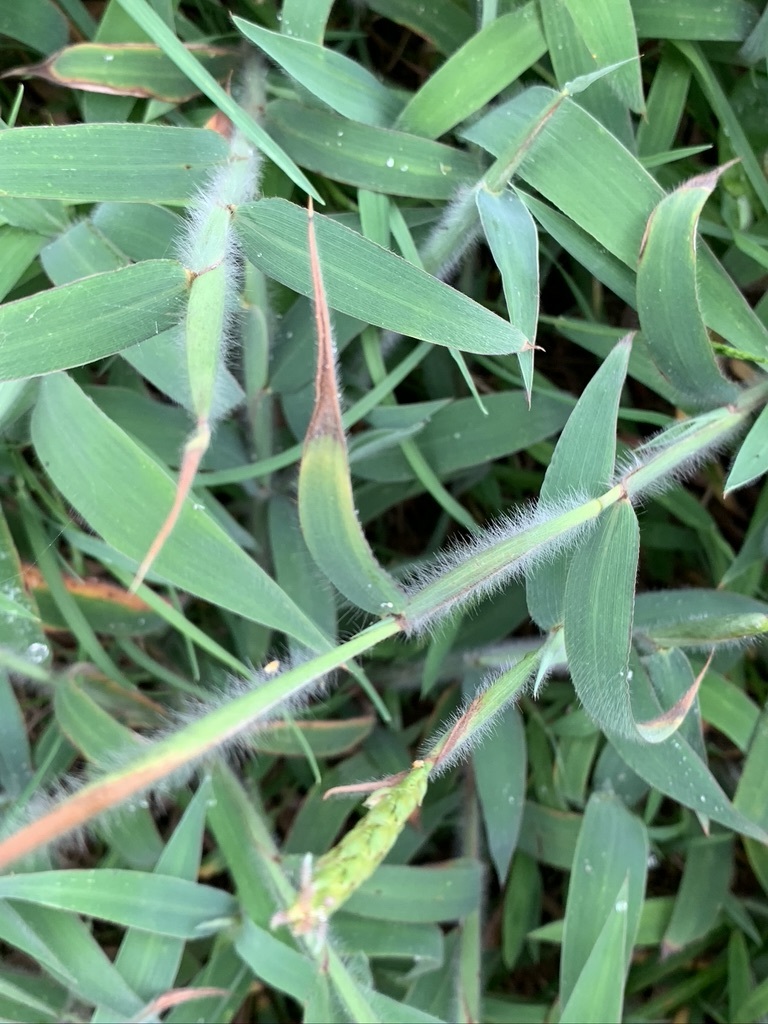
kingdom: Plantae
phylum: Tracheophyta
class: Liliopsida
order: Poales
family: Poaceae
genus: Ischaemum
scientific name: Ischaemum ciliare
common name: Grass
